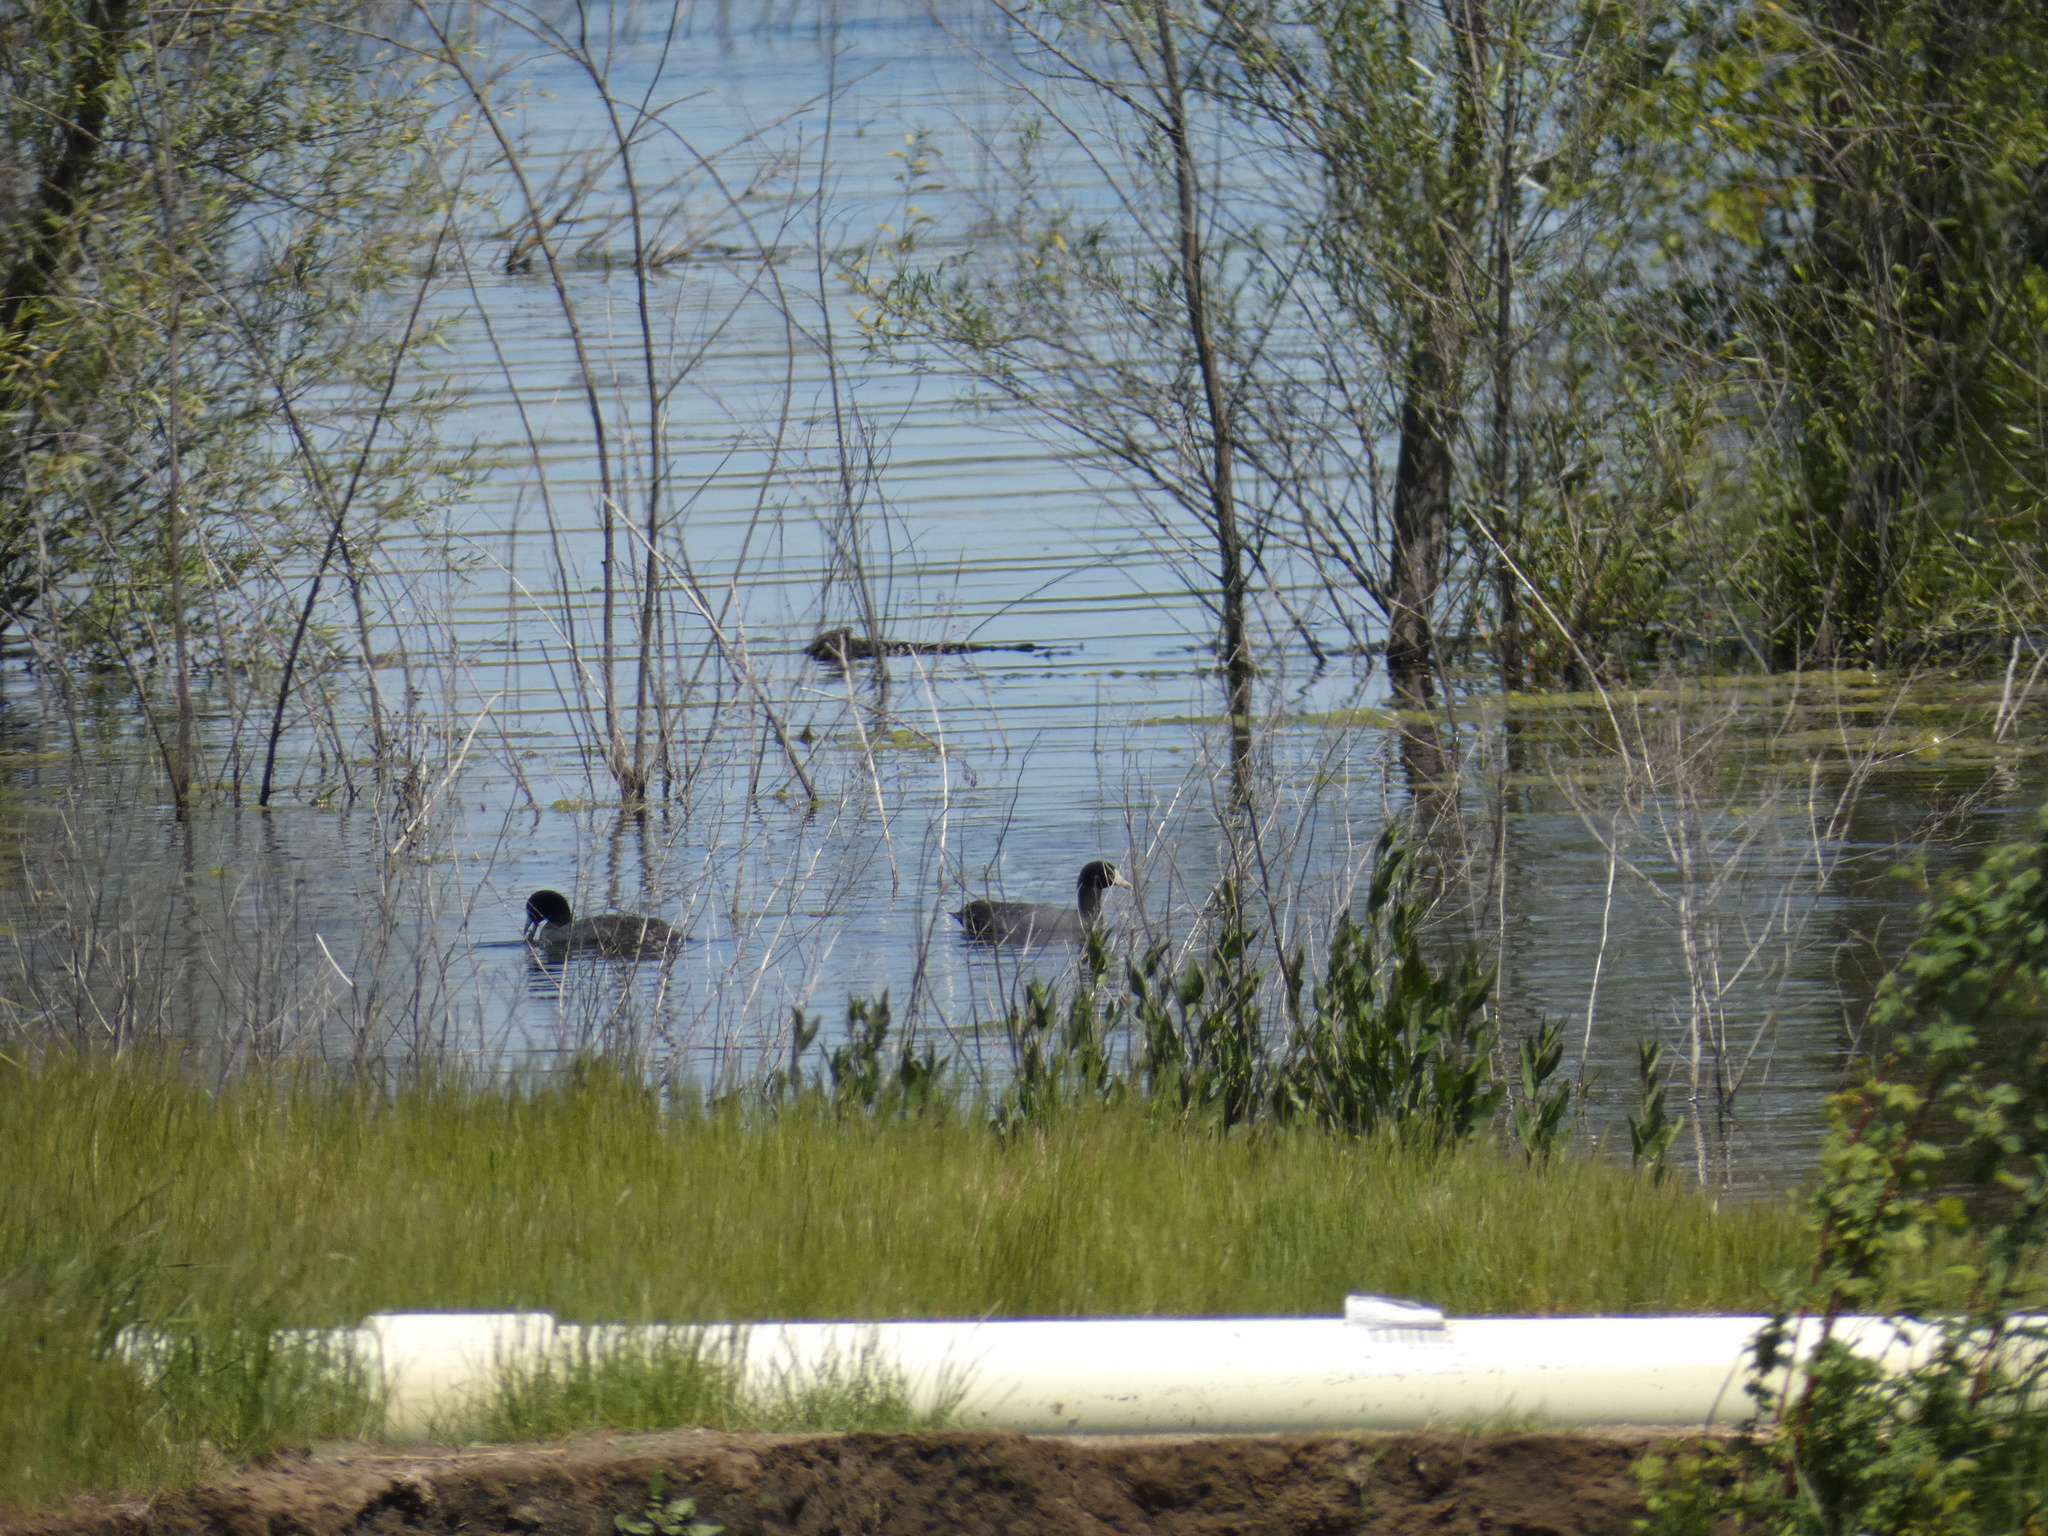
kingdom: Animalia
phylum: Chordata
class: Aves
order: Gruiformes
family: Rallidae
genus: Fulica
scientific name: Fulica americana
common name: American coot
